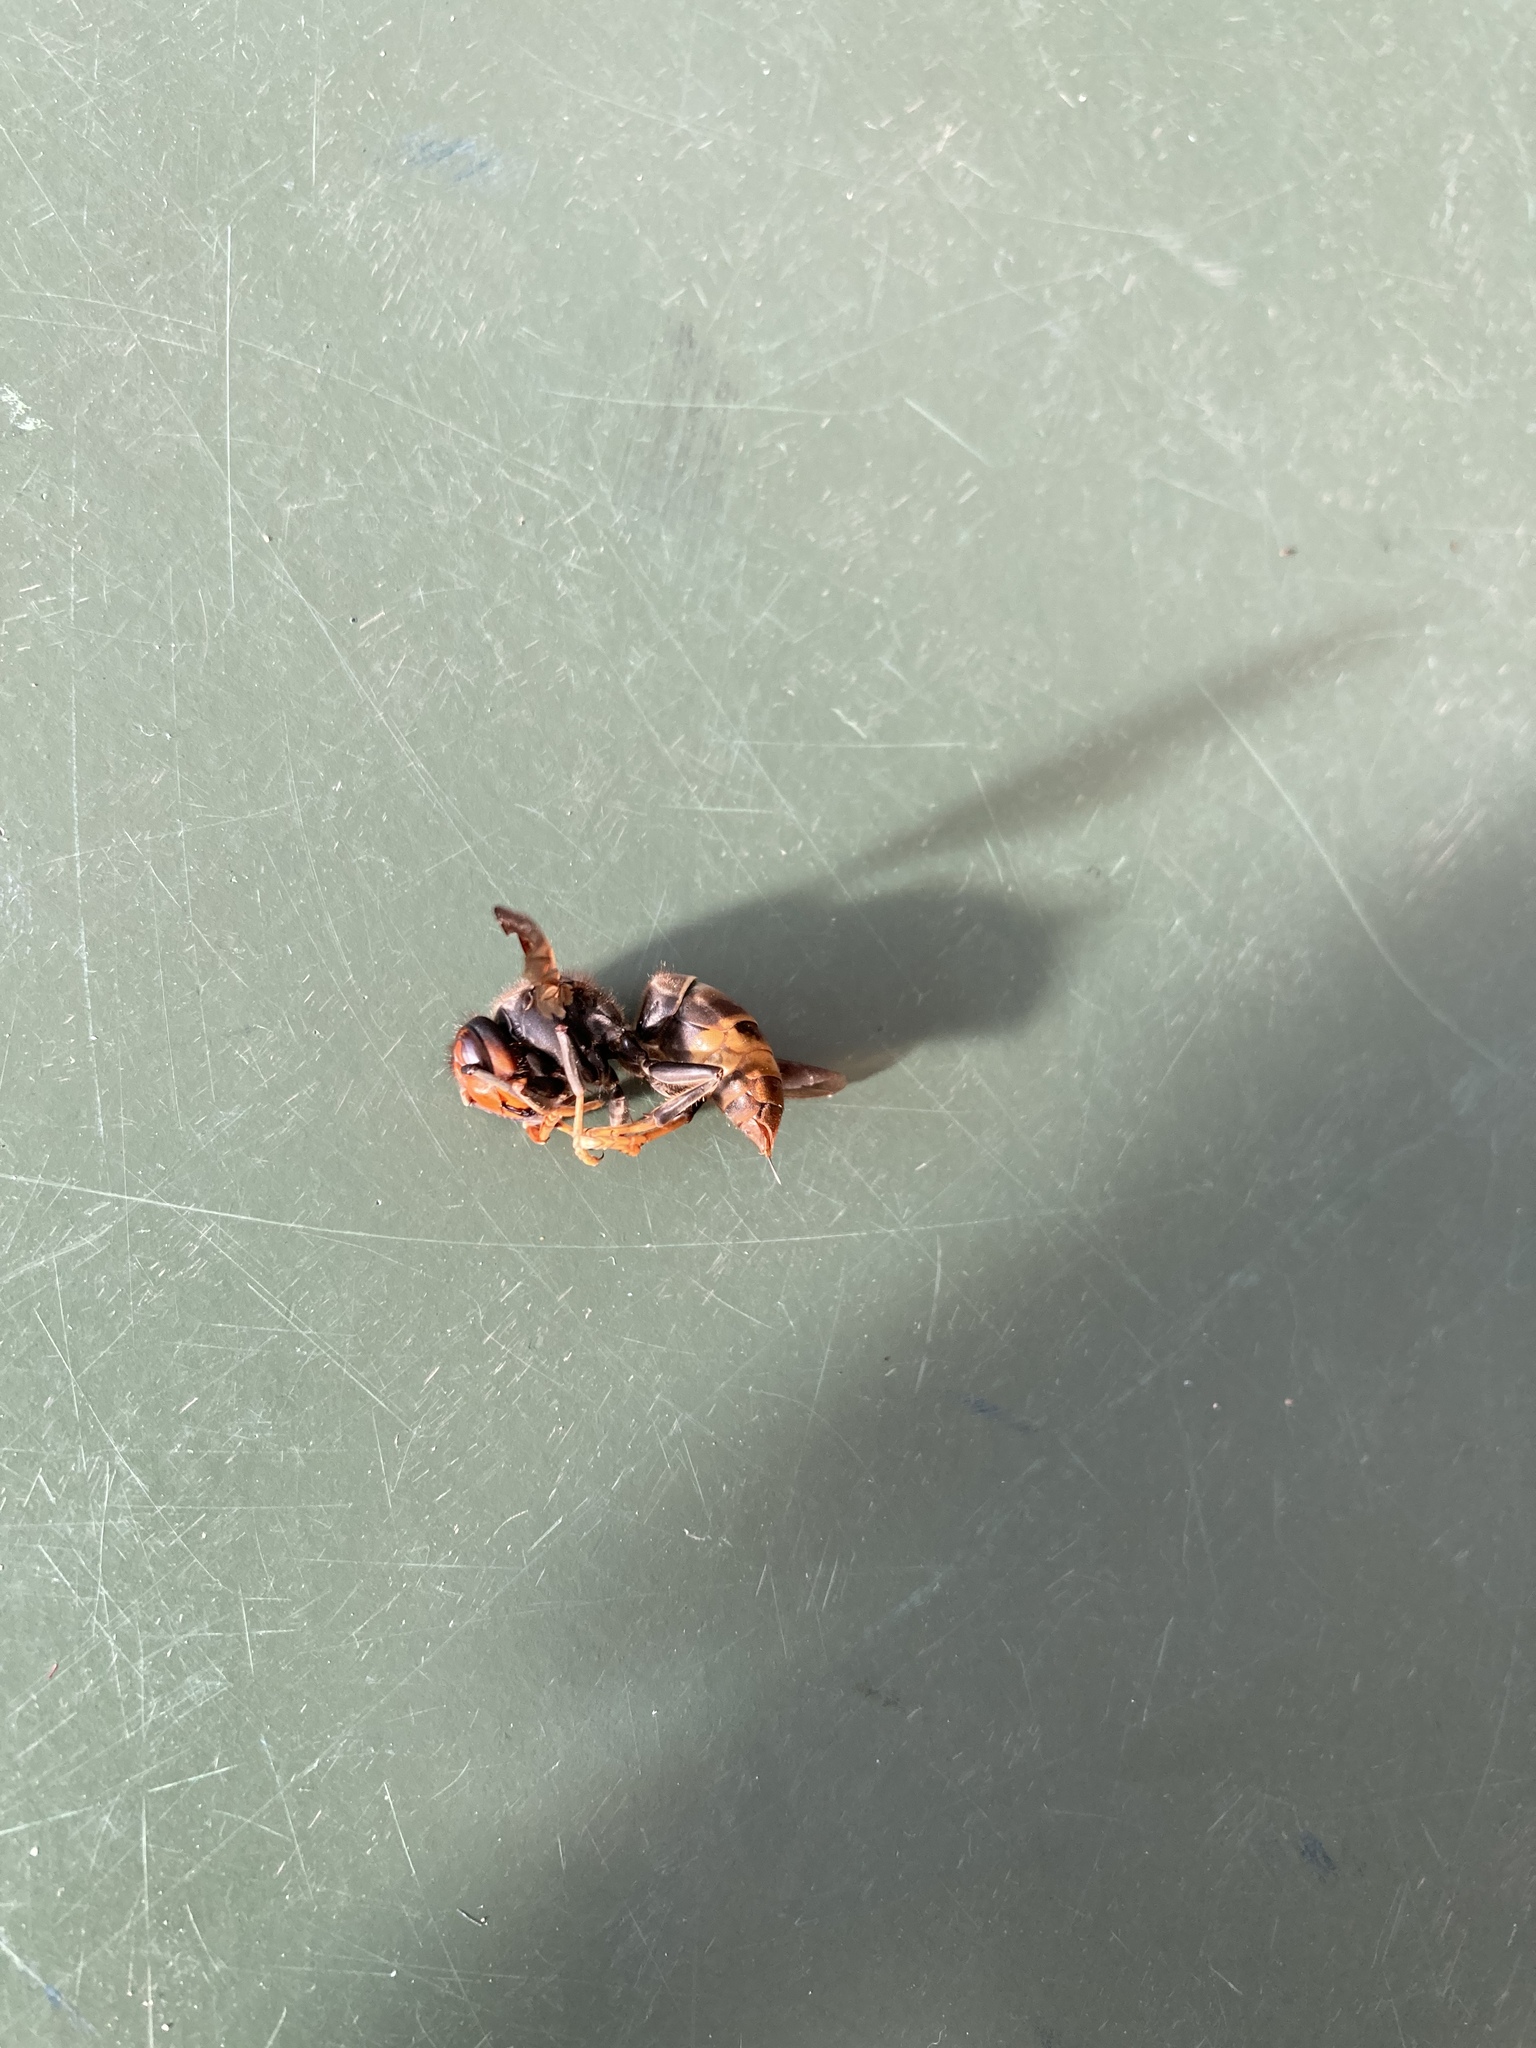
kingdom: Animalia
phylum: Arthropoda
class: Insecta
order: Hymenoptera
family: Vespidae
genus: Vespa
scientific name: Vespa velutina
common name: Asian hornet
